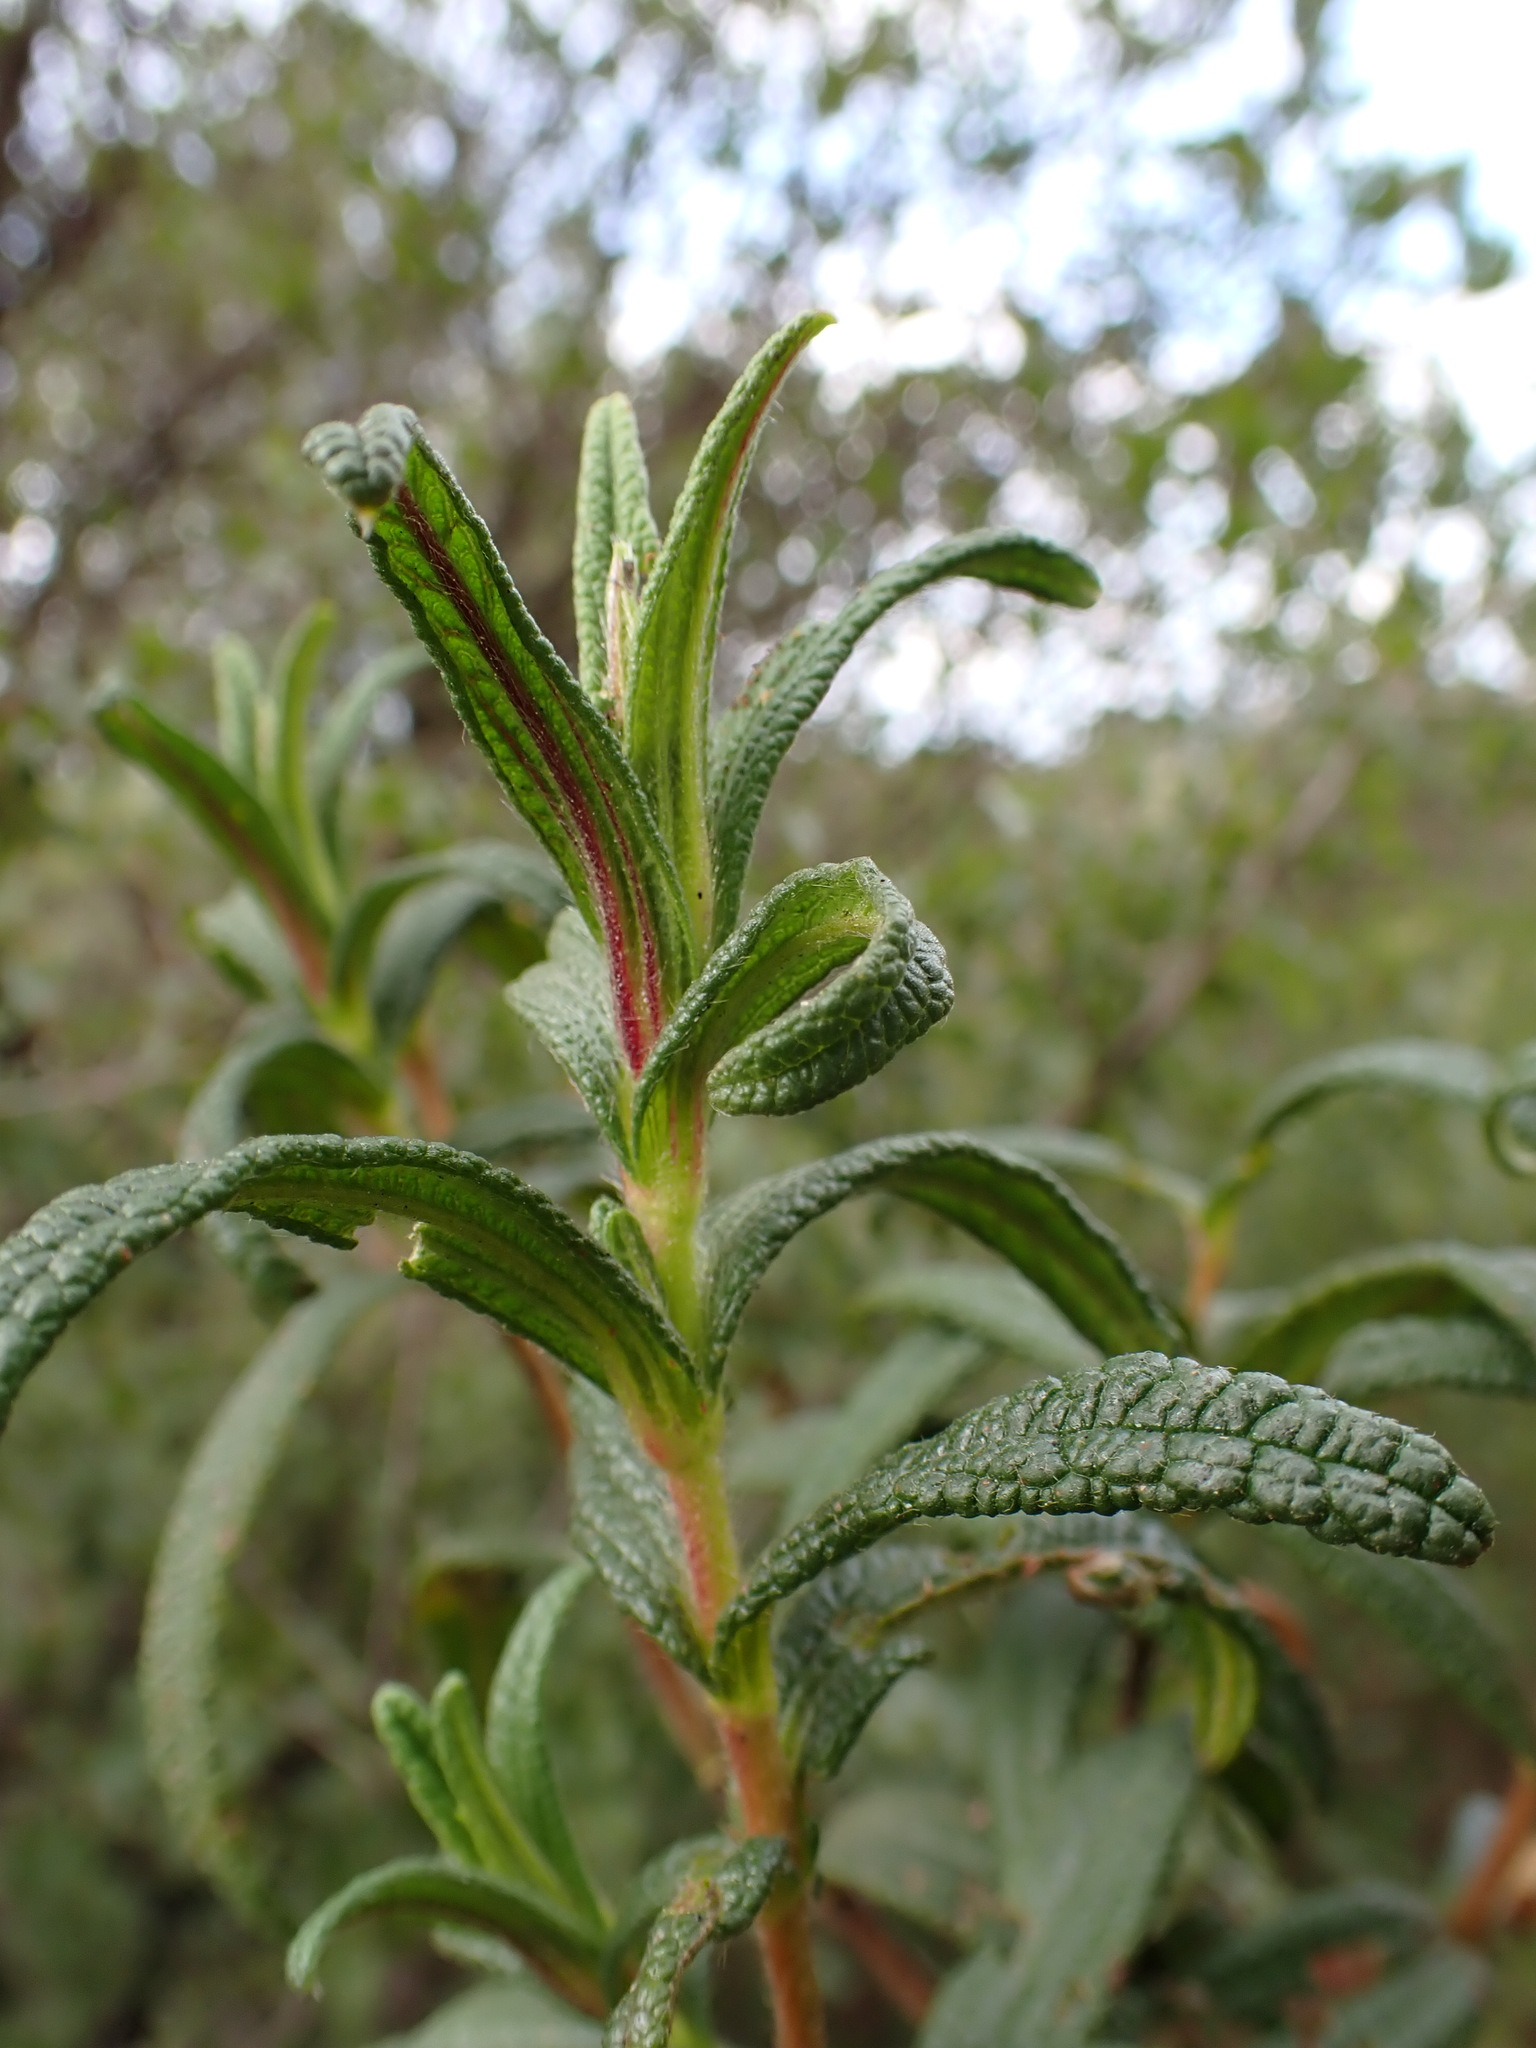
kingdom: Plantae
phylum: Tracheophyta
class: Magnoliopsida
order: Malvales
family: Cistaceae
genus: Cistus
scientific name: Cistus monspeliensis
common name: Montpelier cistus
